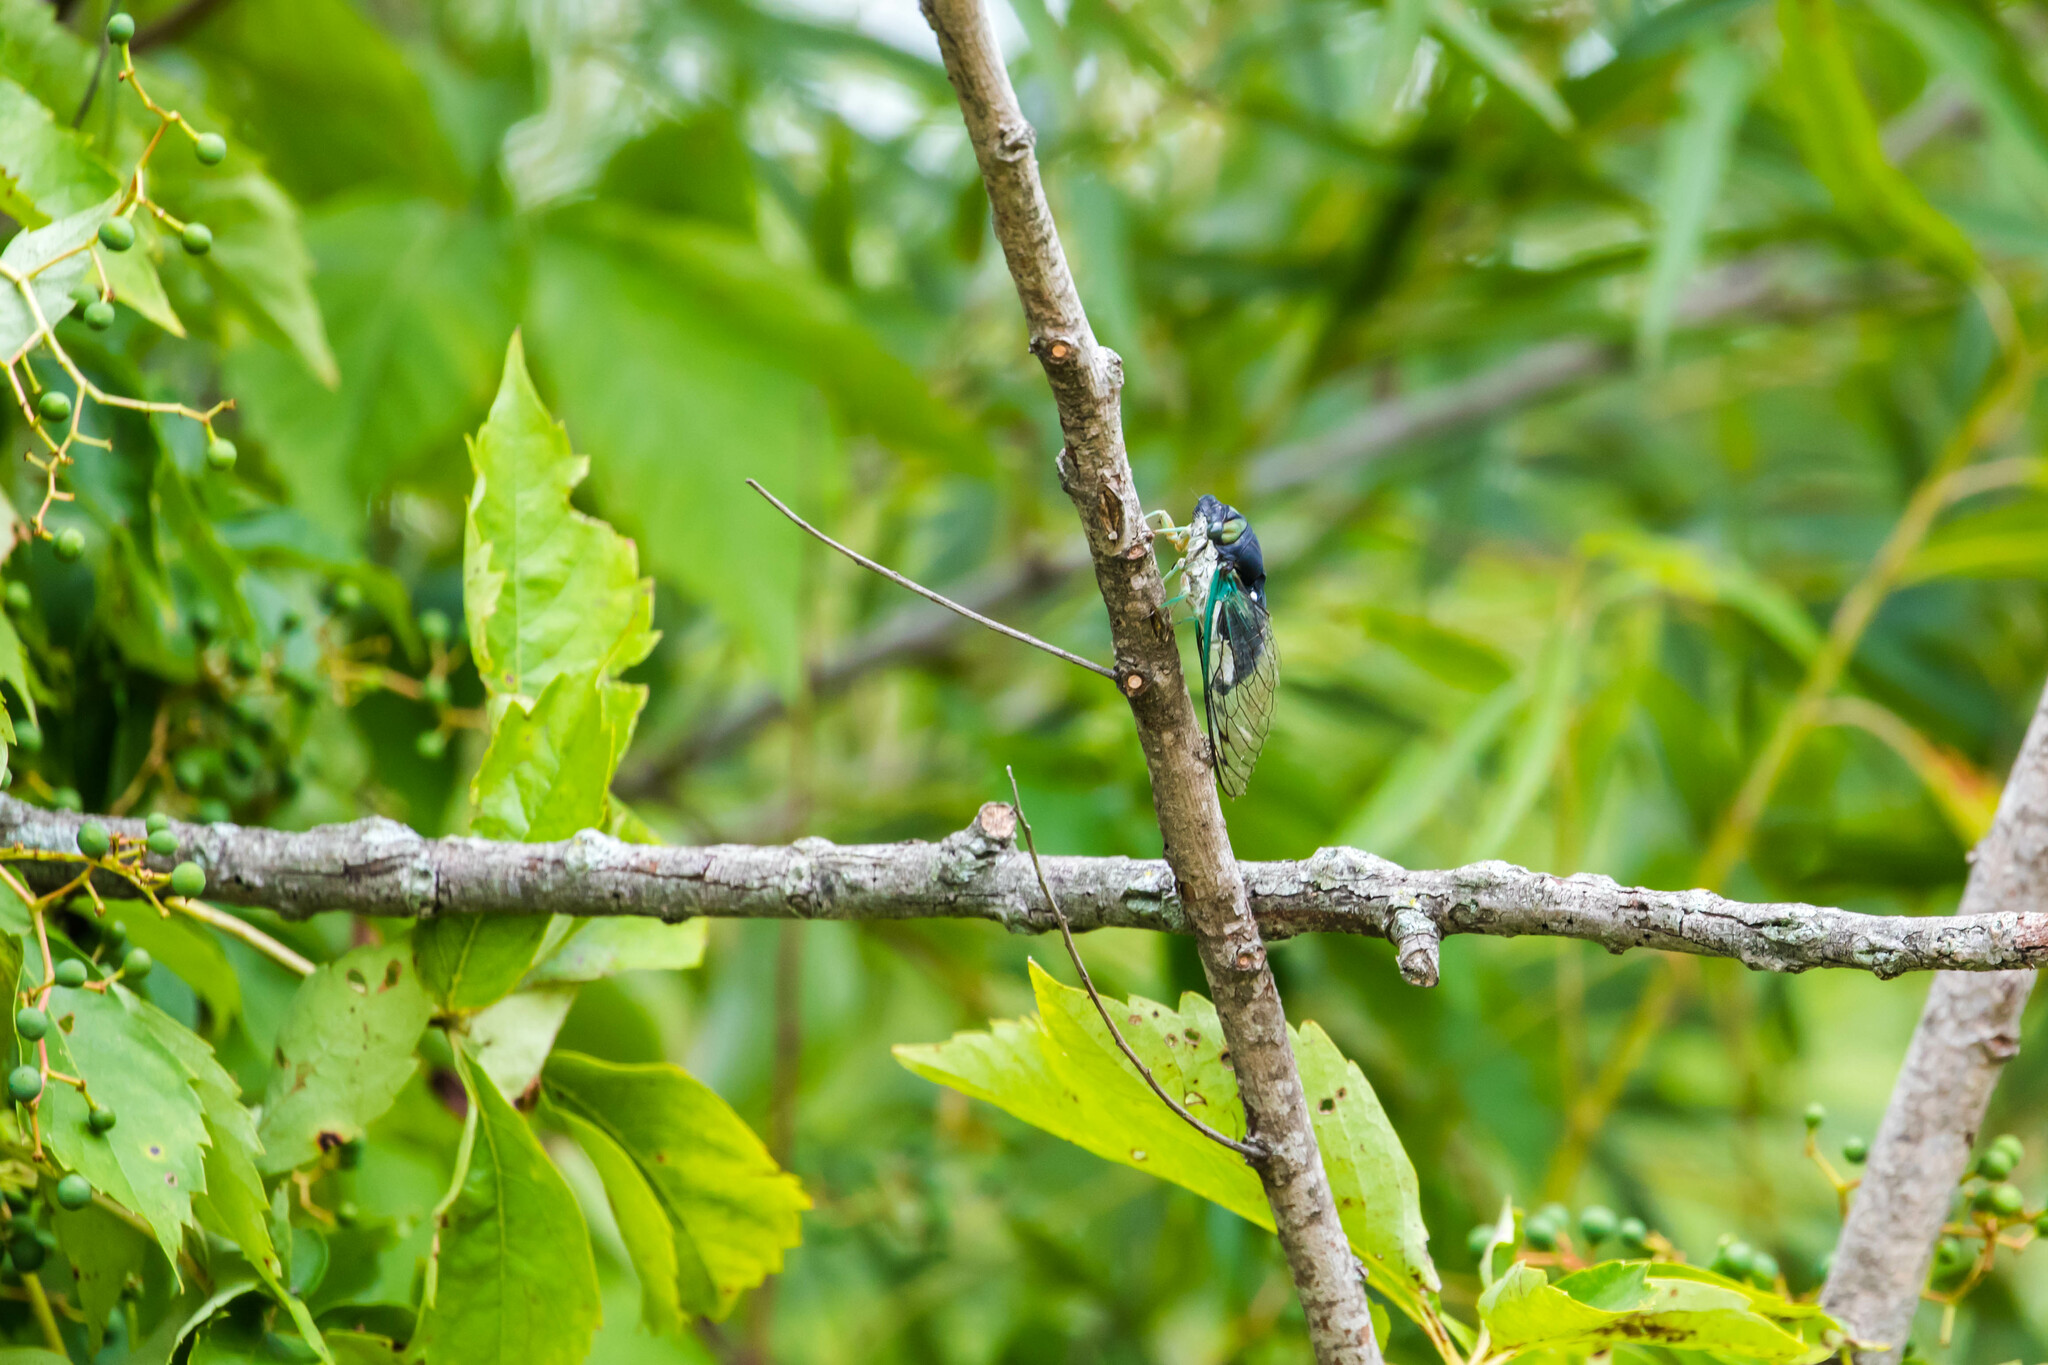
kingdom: Animalia
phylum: Arthropoda
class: Insecta
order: Hemiptera
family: Cicadidae
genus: Neotibicen
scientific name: Neotibicen tibicen
